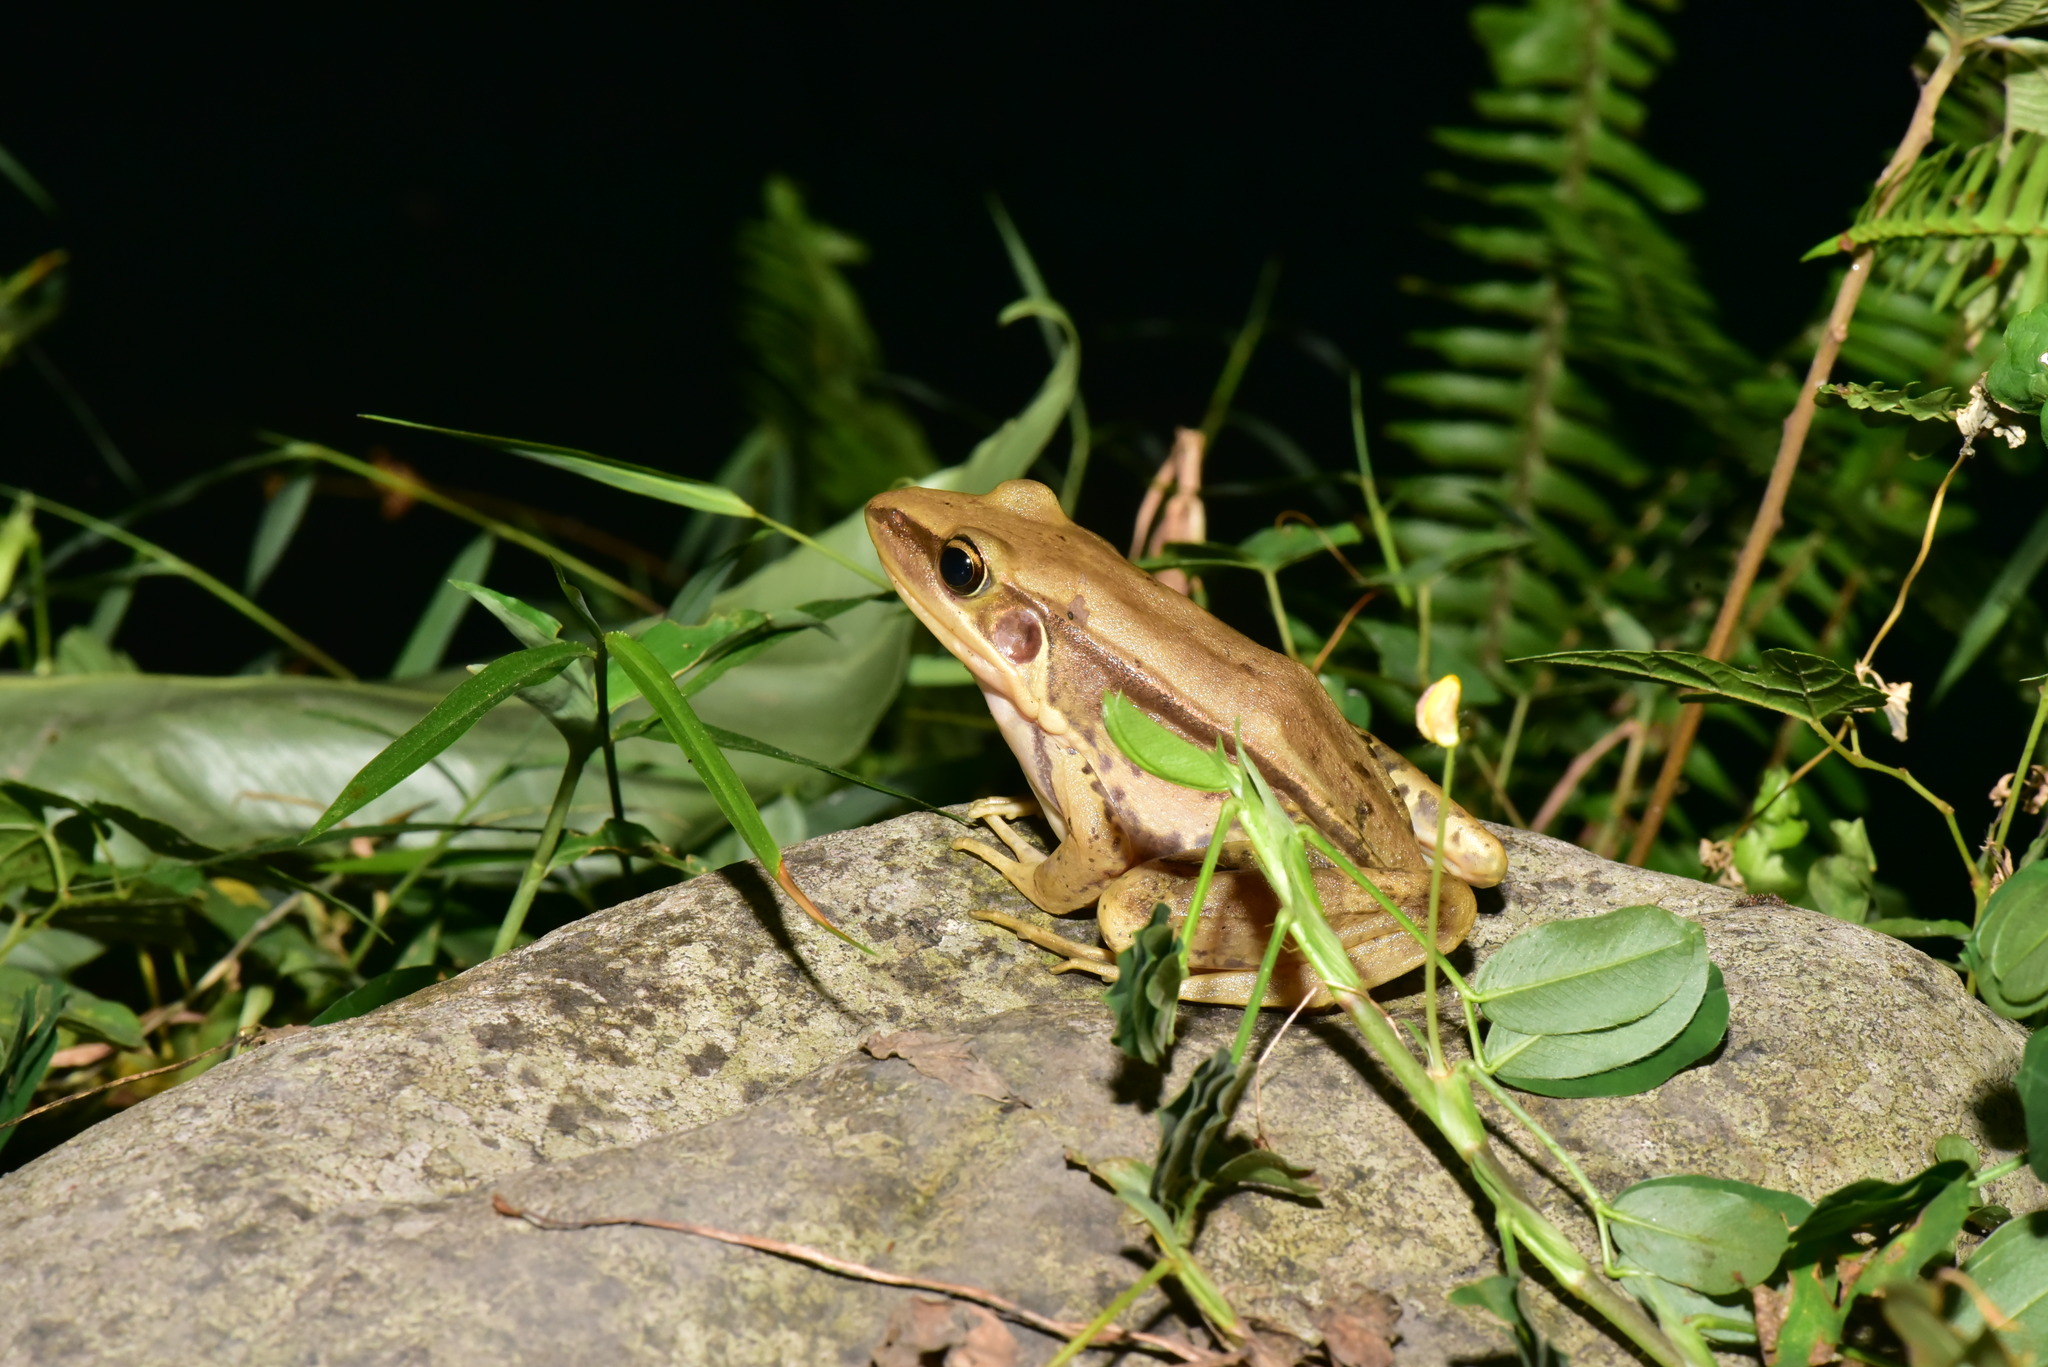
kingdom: Animalia
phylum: Chordata
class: Amphibia
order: Anura
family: Ranidae
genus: Sylvirana
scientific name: Sylvirana guentheri
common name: Guenther's amoy frog
